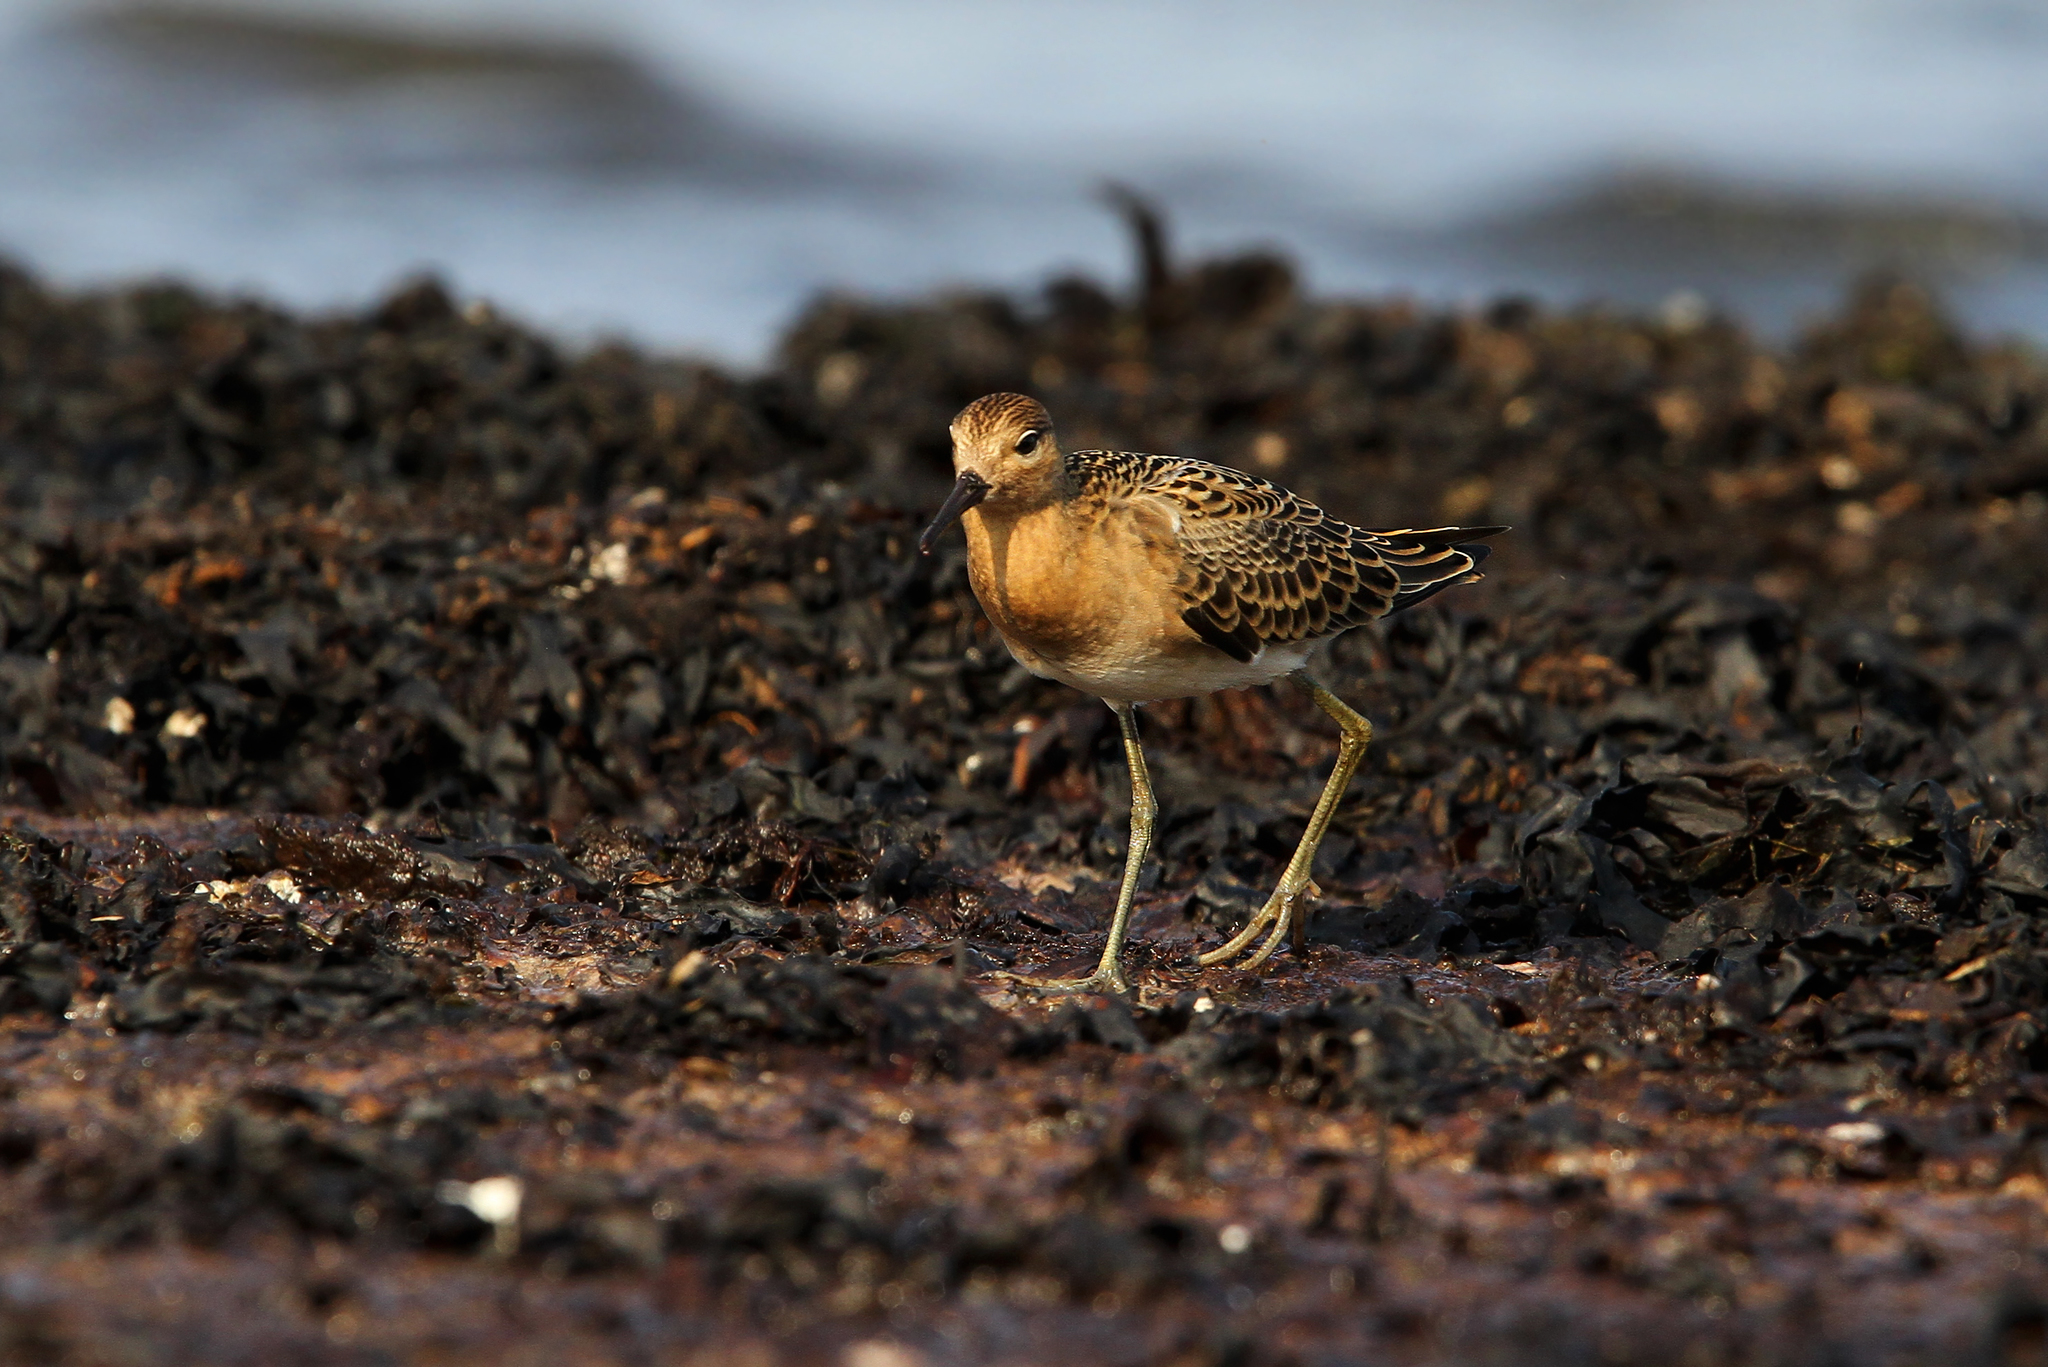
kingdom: Animalia
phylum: Chordata
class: Aves
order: Charadriiformes
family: Scolopacidae
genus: Calidris
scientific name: Calidris pugnax
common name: Ruff
